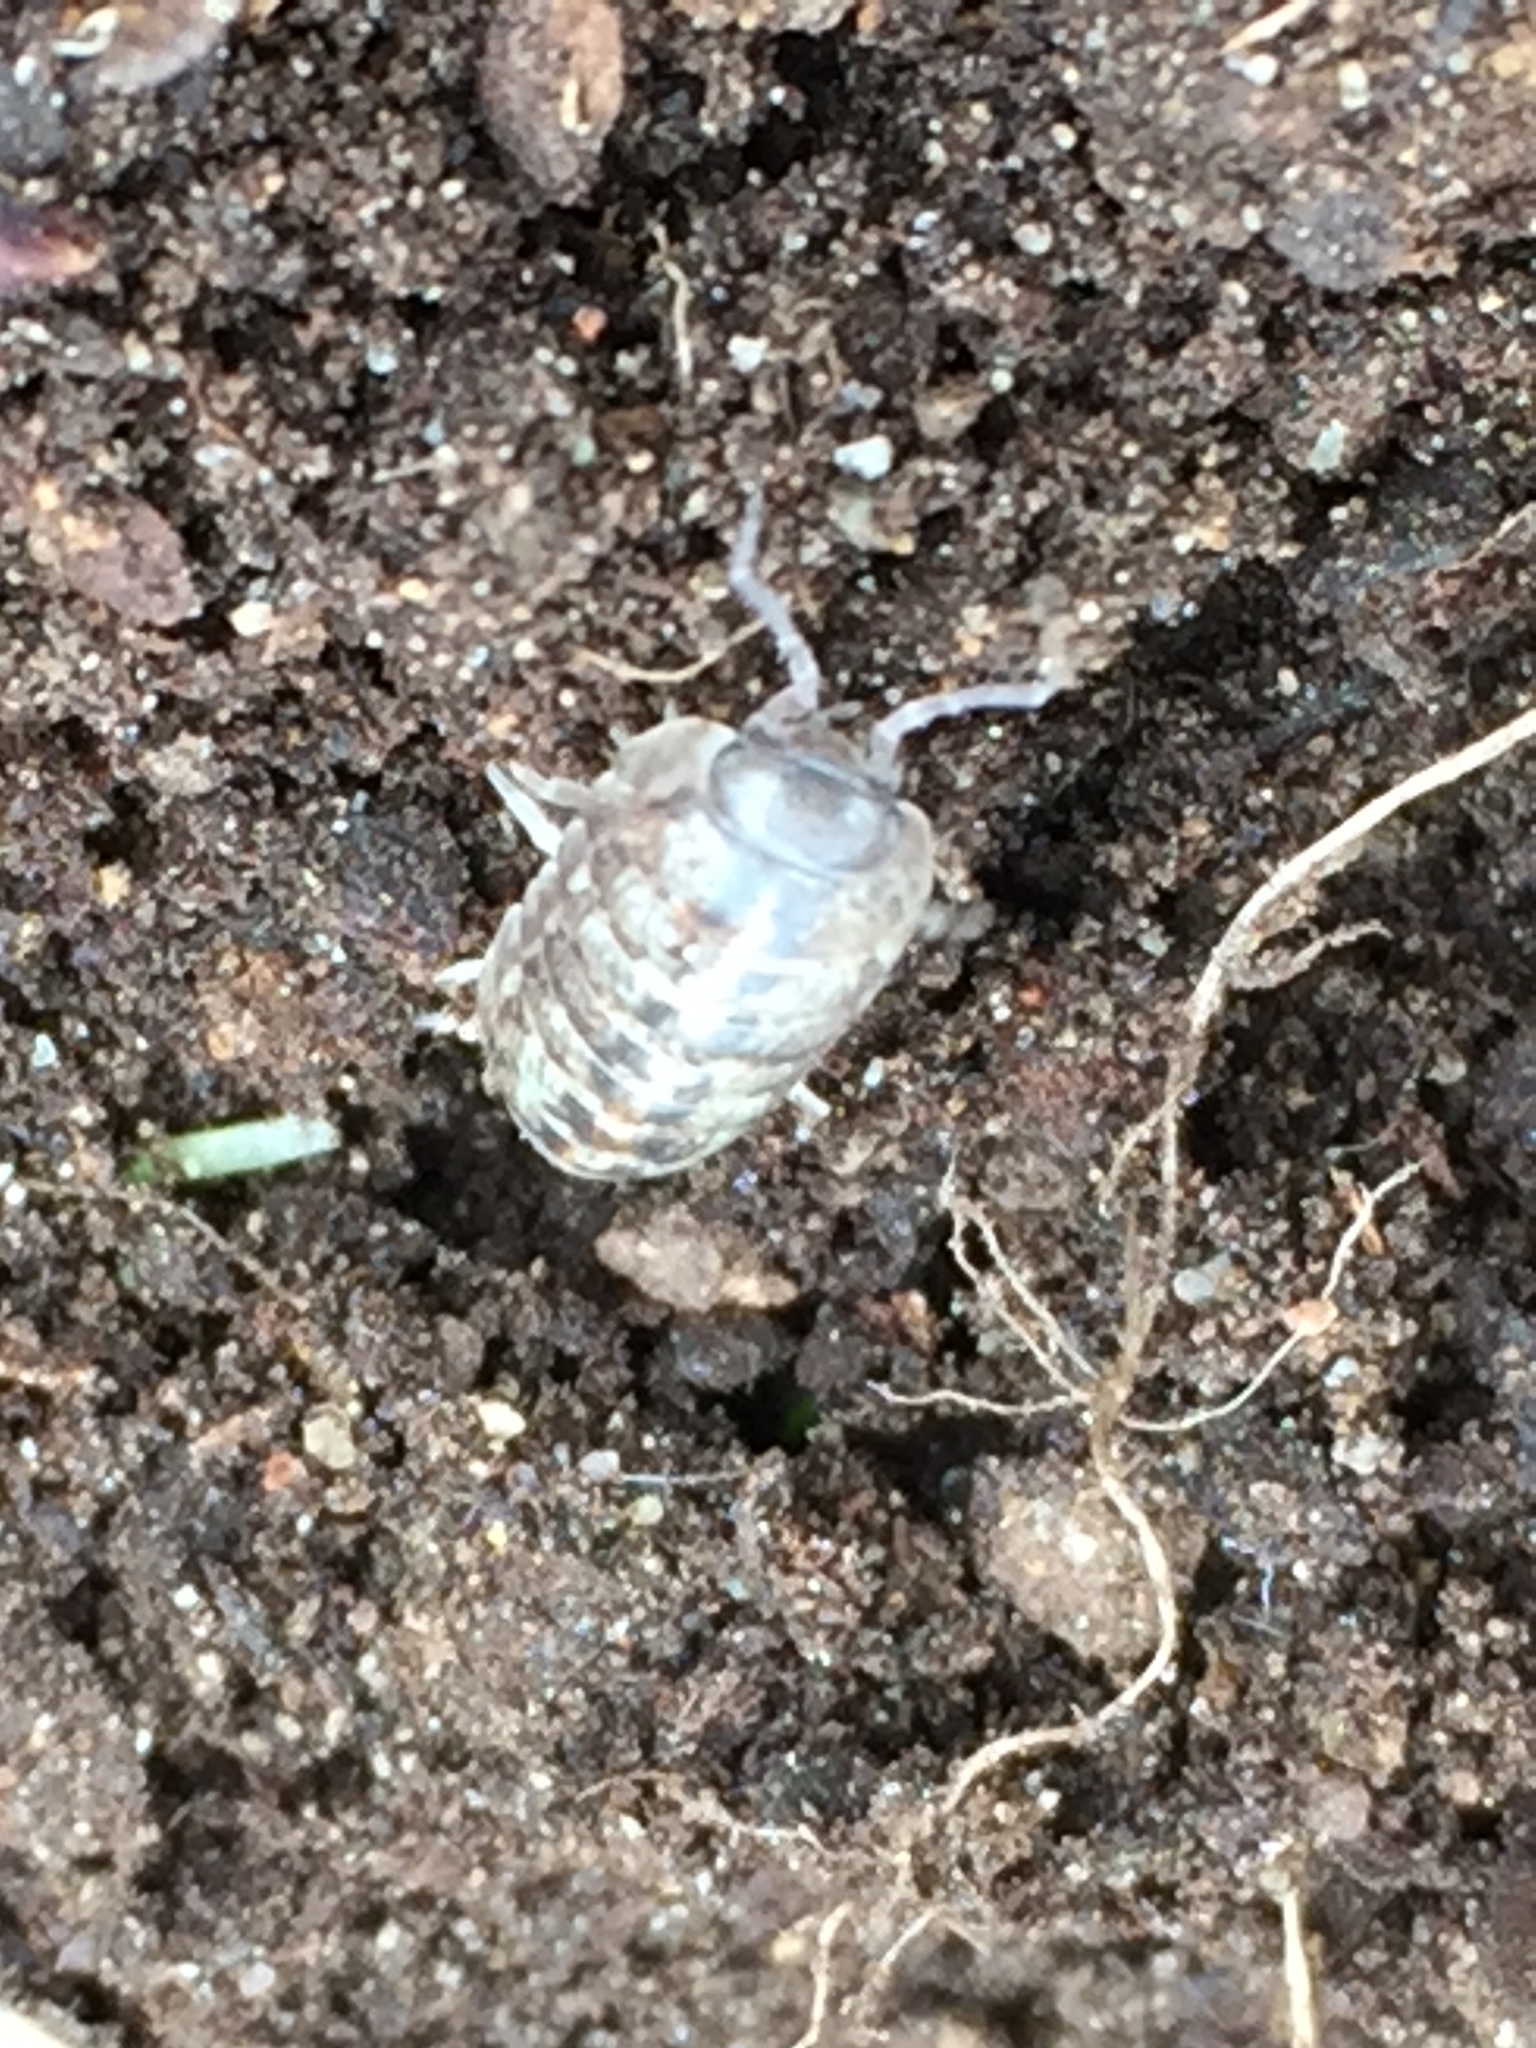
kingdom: Animalia
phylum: Arthropoda
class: Malacostraca
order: Isopoda
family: Armadillidiidae
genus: Armadillidium
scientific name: Armadillidium vulgare
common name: Common pill woodlouse
